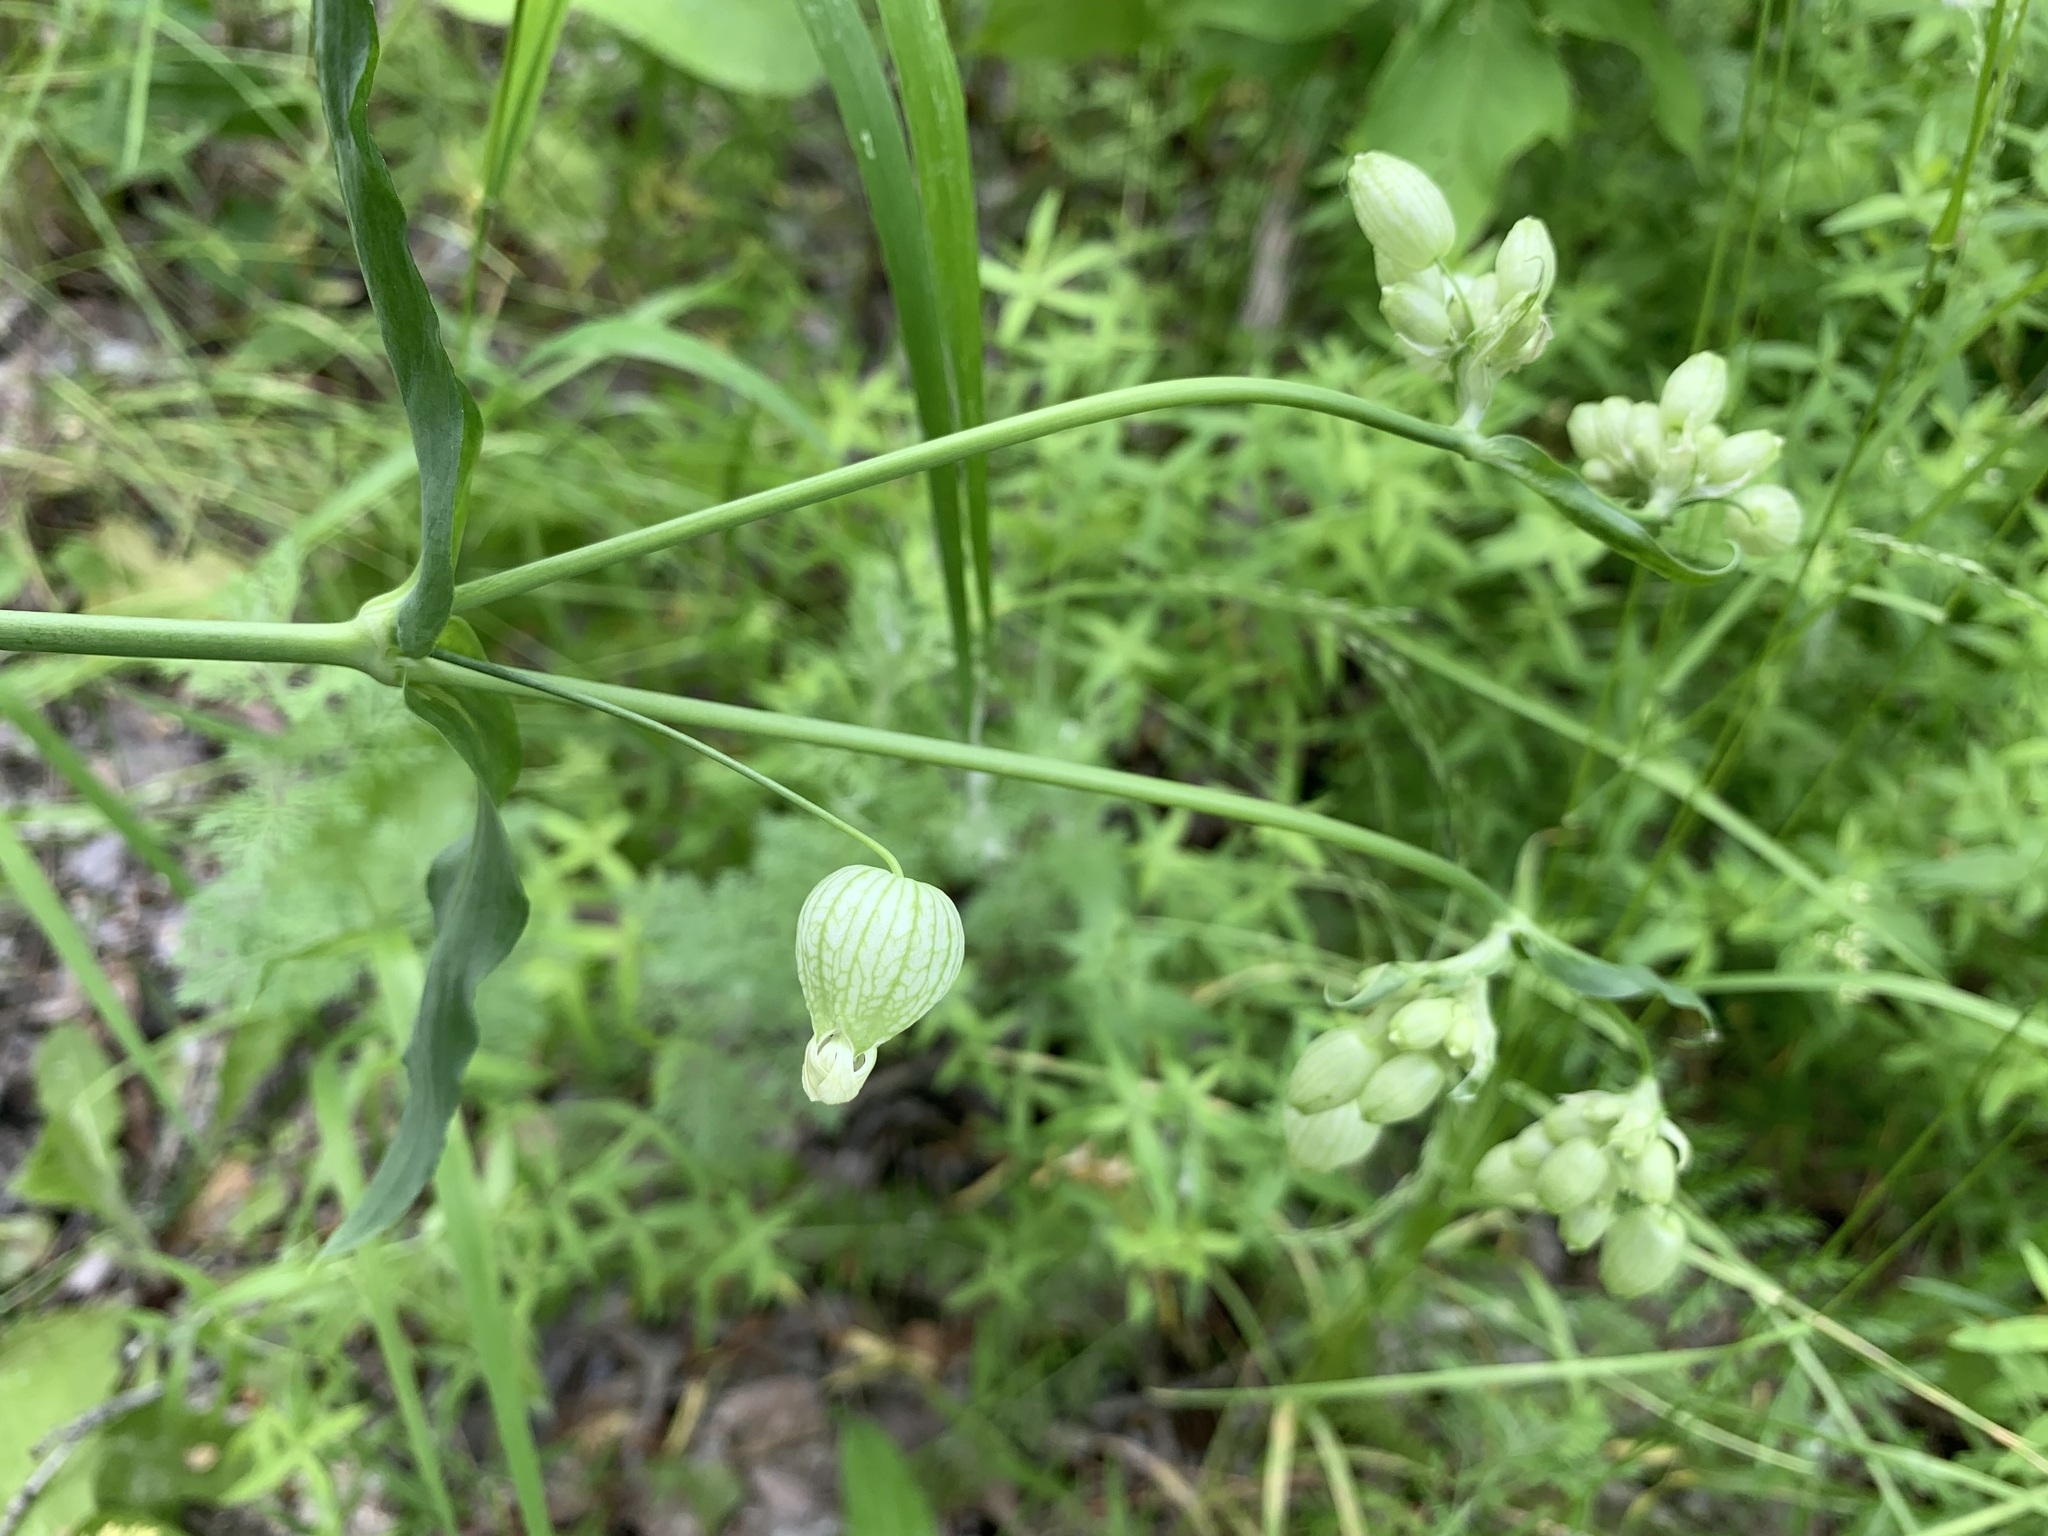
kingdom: Plantae
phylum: Tracheophyta
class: Magnoliopsida
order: Caryophyllales
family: Caryophyllaceae
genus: Silene
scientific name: Silene vulgaris
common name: Bladder campion
